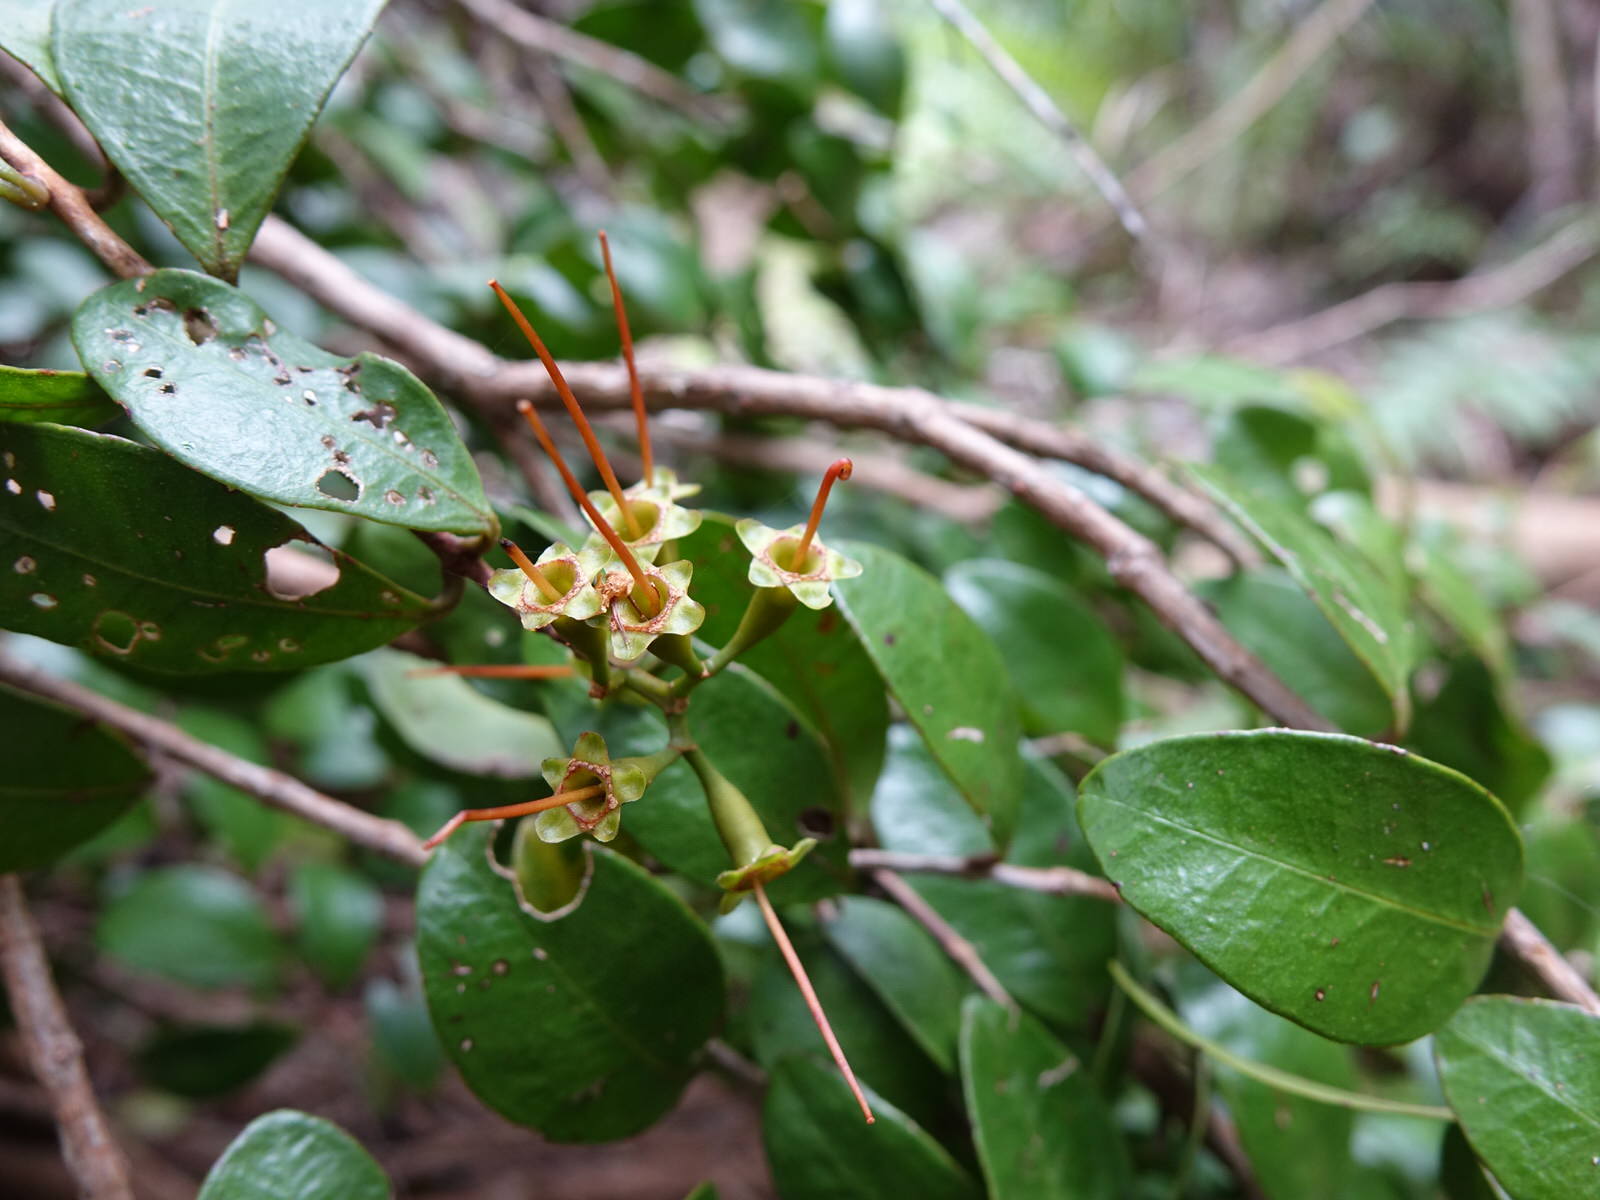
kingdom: Plantae
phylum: Tracheophyta
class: Magnoliopsida
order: Myrtales
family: Myrtaceae
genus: Metrosideros
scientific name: Metrosideros fulgens
